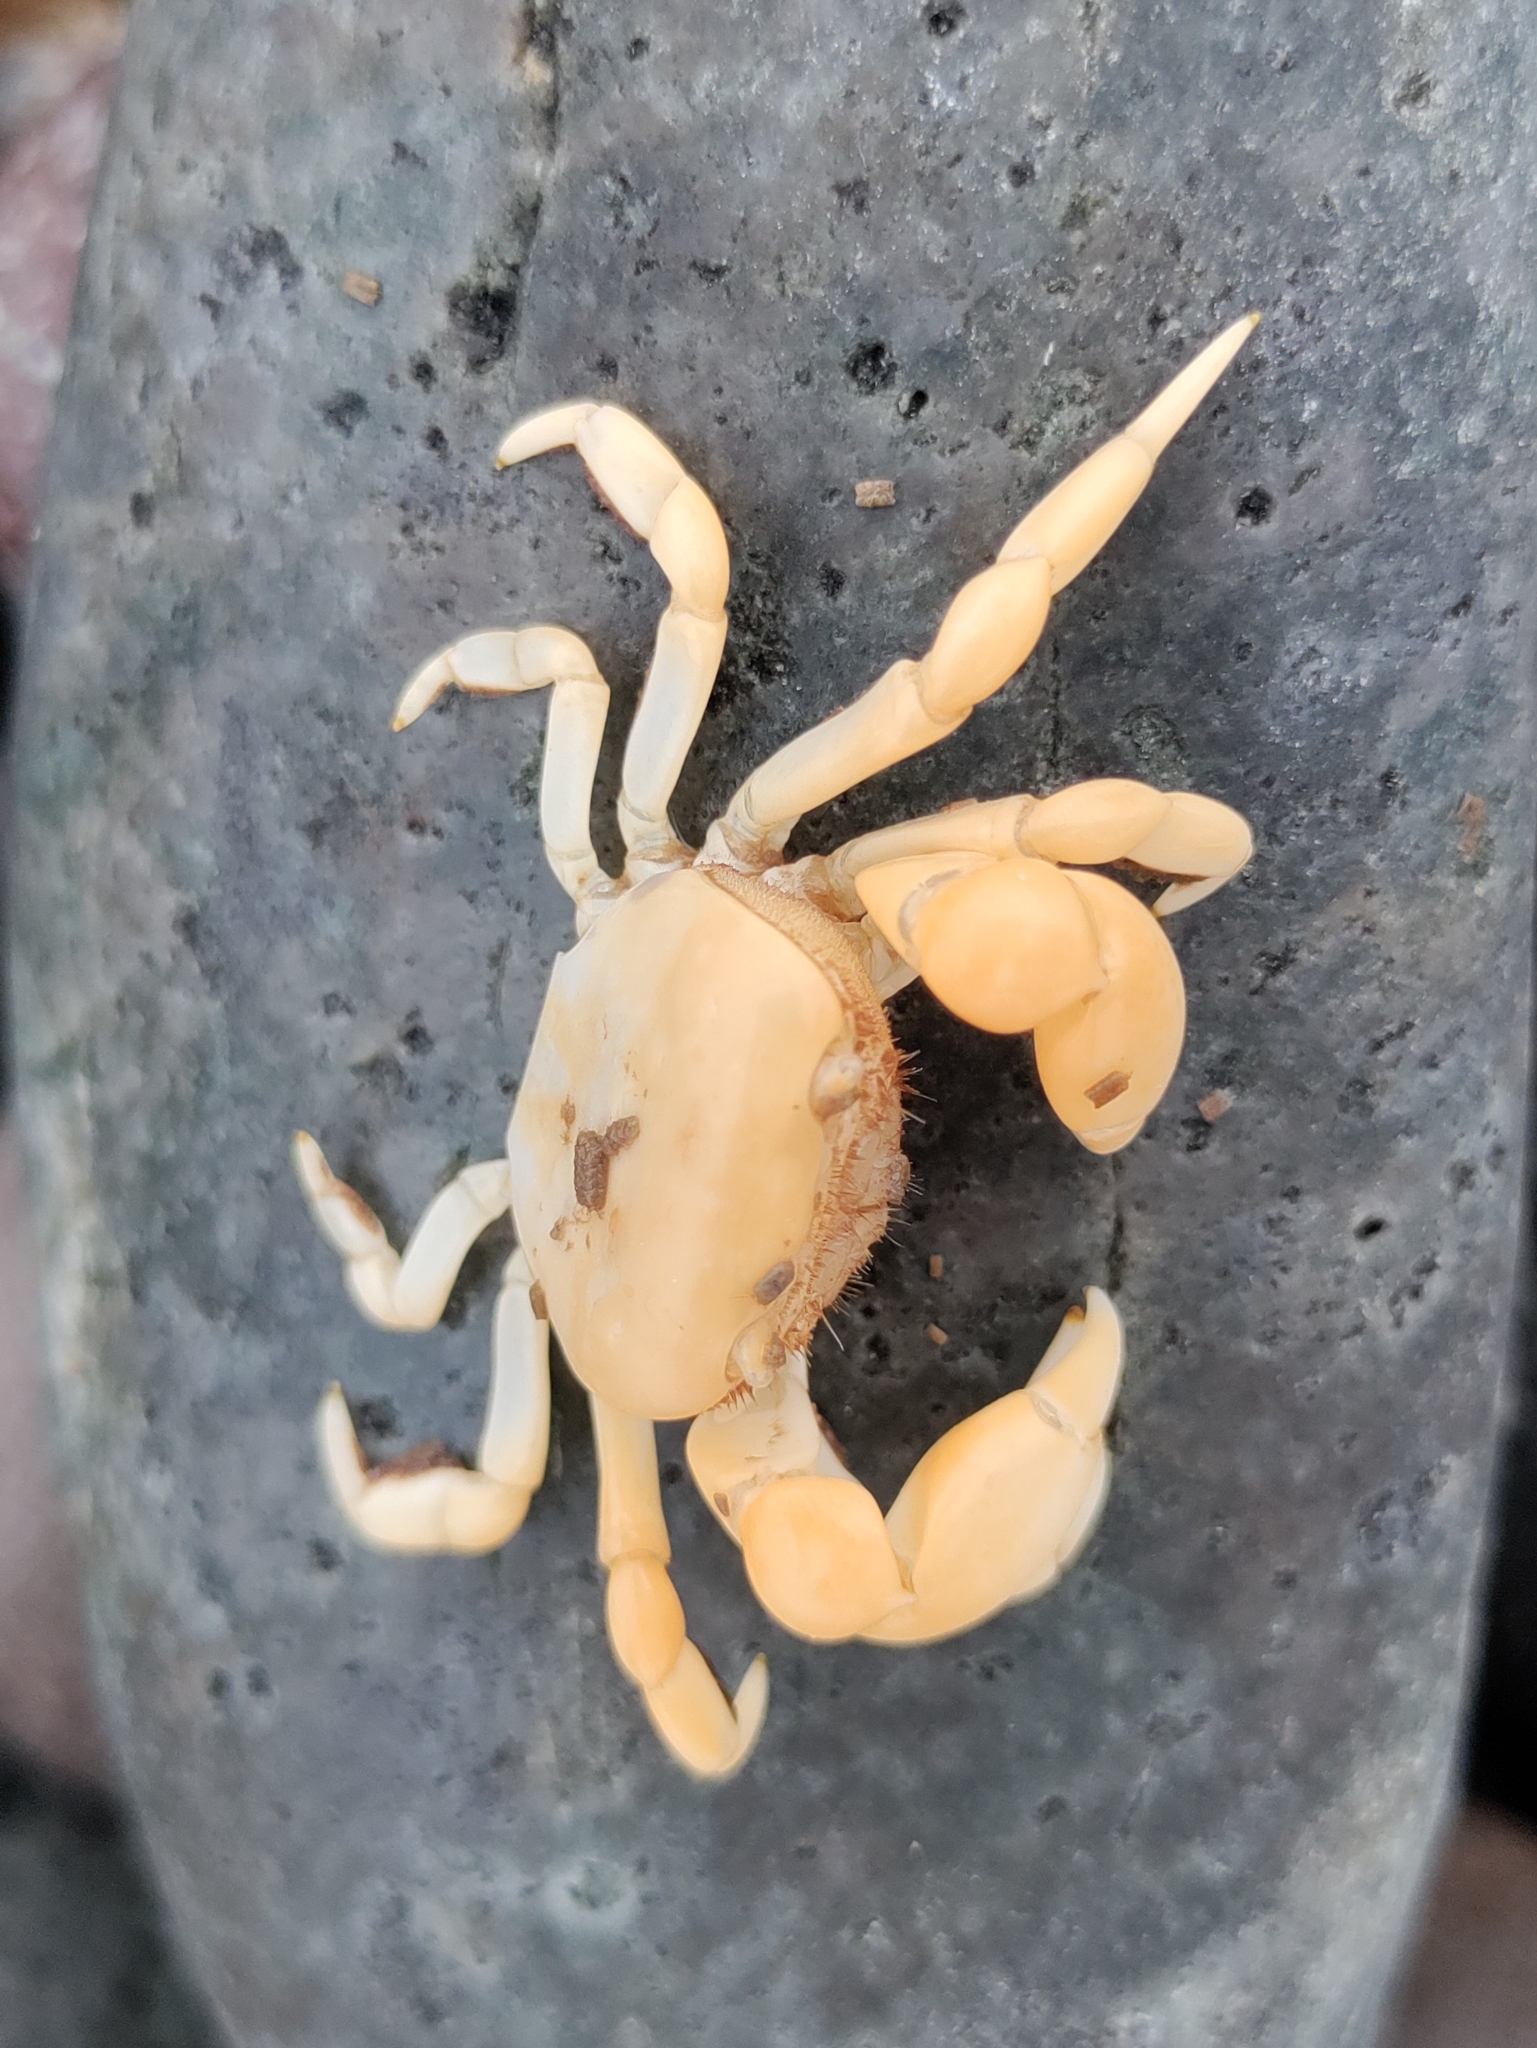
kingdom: Animalia
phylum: Arthropoda
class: Malacostraca
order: Decapoda
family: Varunidae
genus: Pinnotherelia
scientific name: Pinnotherelia laevigata
